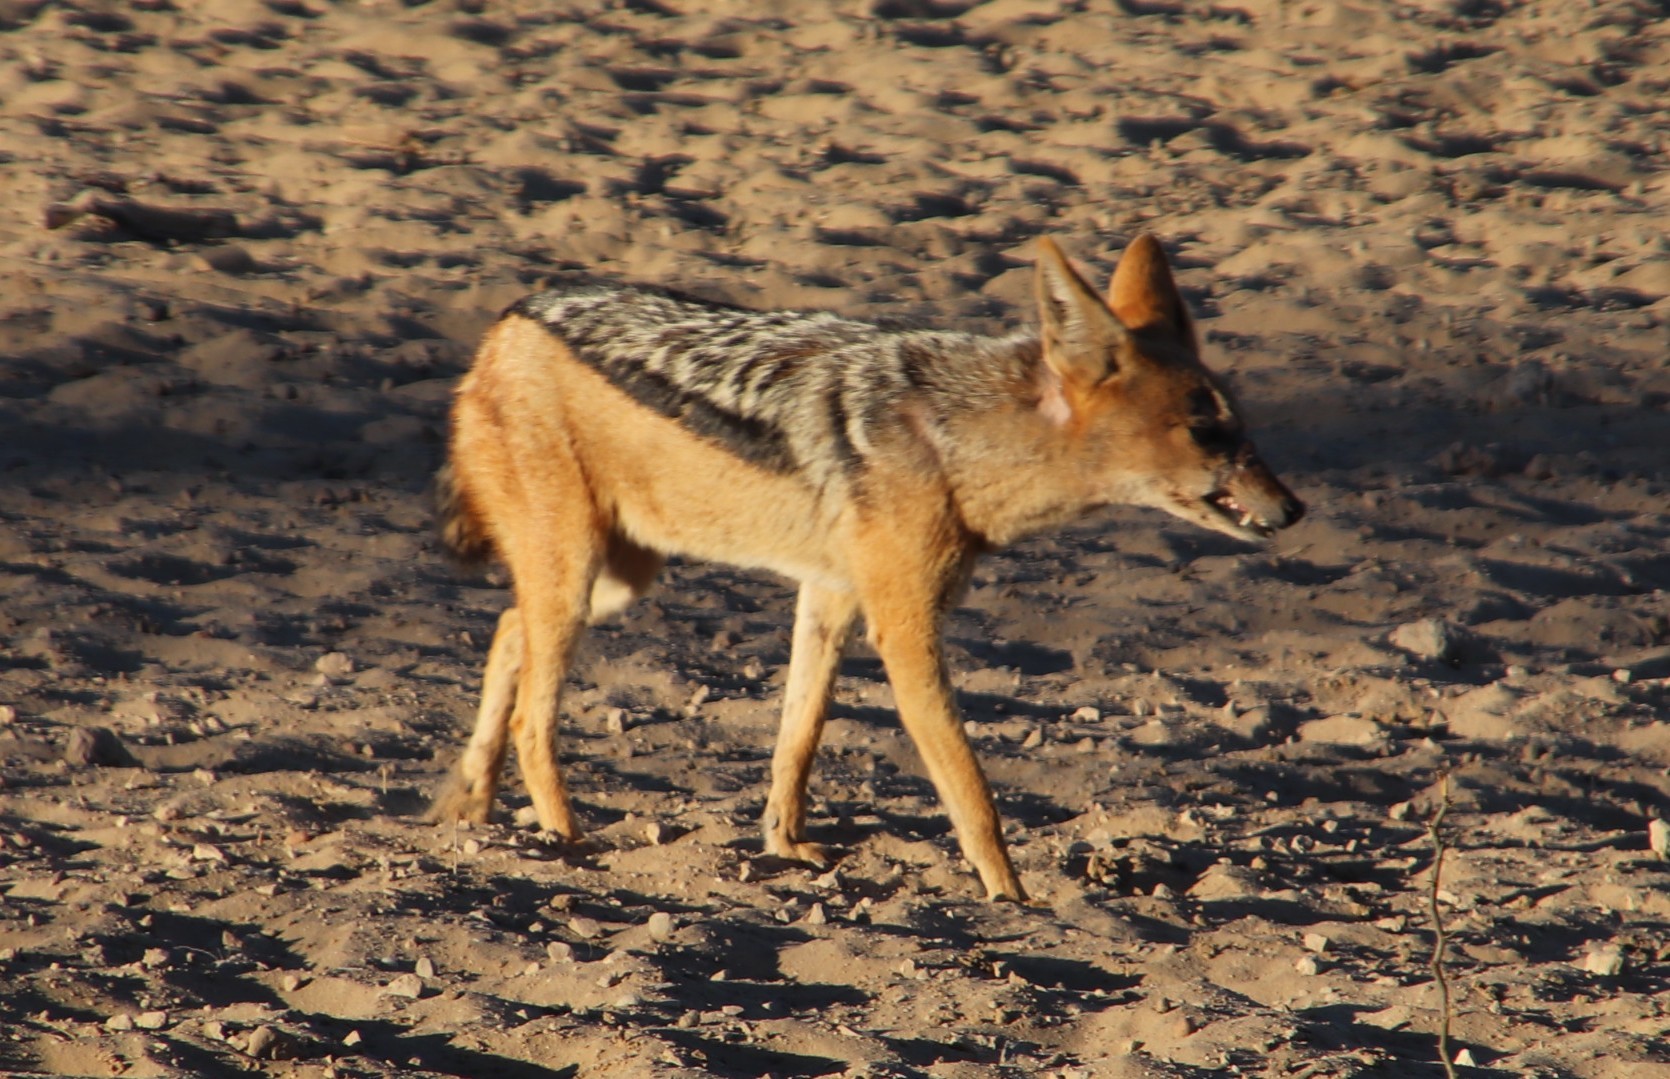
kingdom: Animalia
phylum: Chordata
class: Mammalia
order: Carnivora
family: Canidae
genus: Lupulella
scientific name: Lupulella
